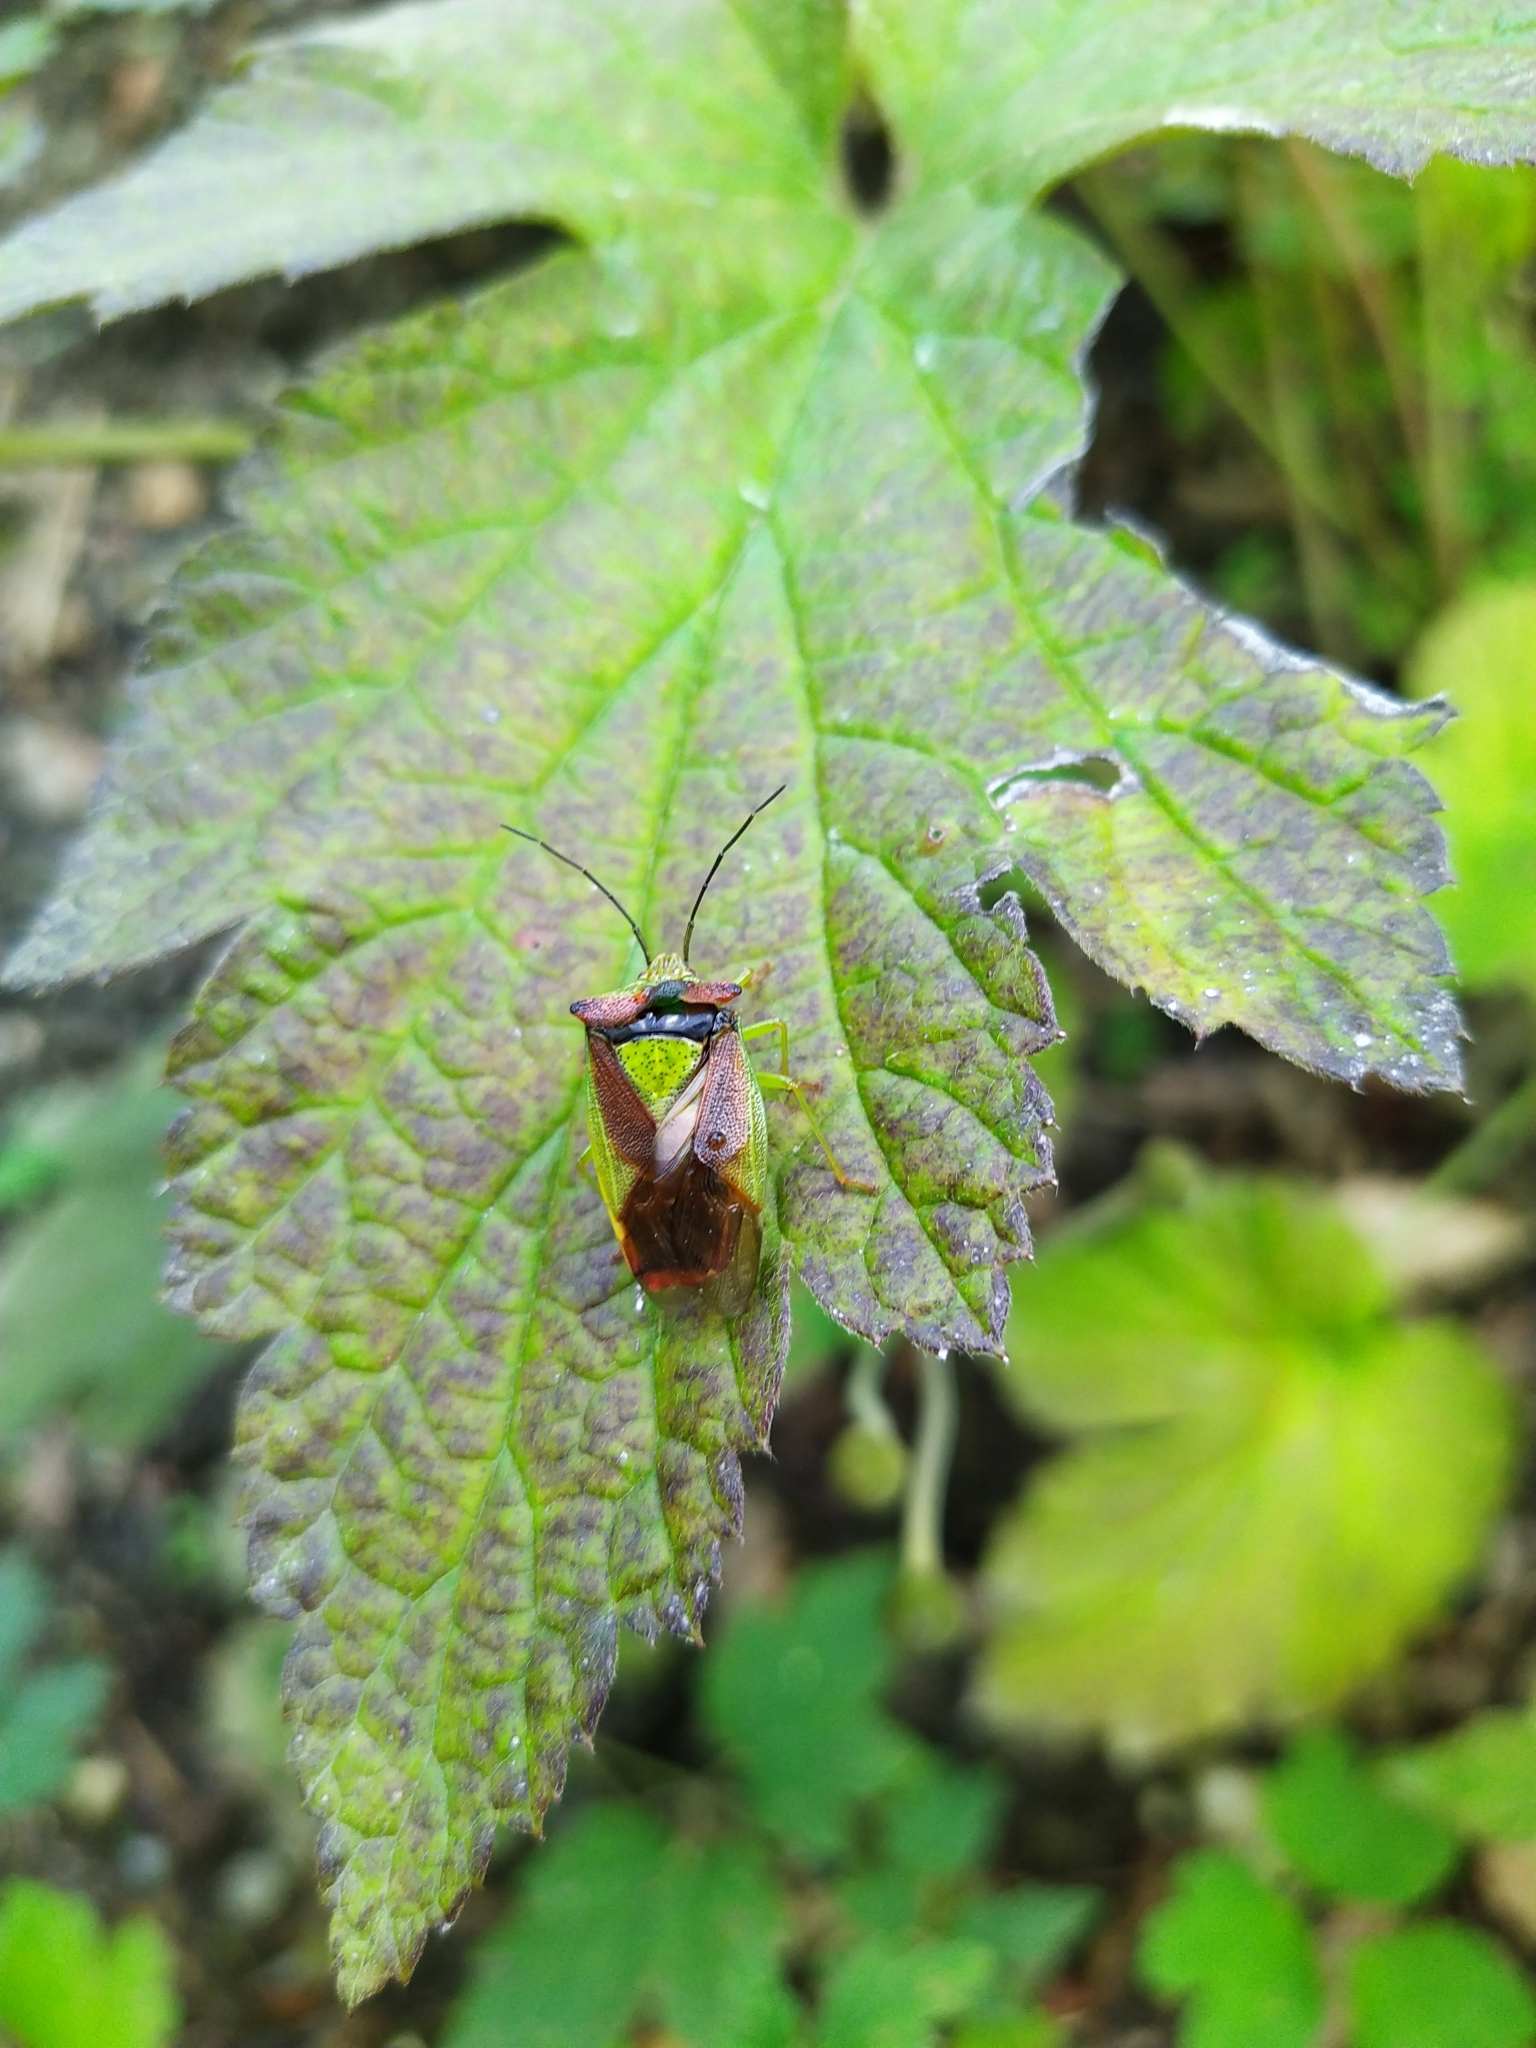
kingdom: Animalia
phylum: Arthropoda
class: Insecta
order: Hemiptera
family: Acanthosomatidae
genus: Acanthosoma
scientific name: Acanthosoma haemorrhoidale
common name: Hawthorn shieldbug
